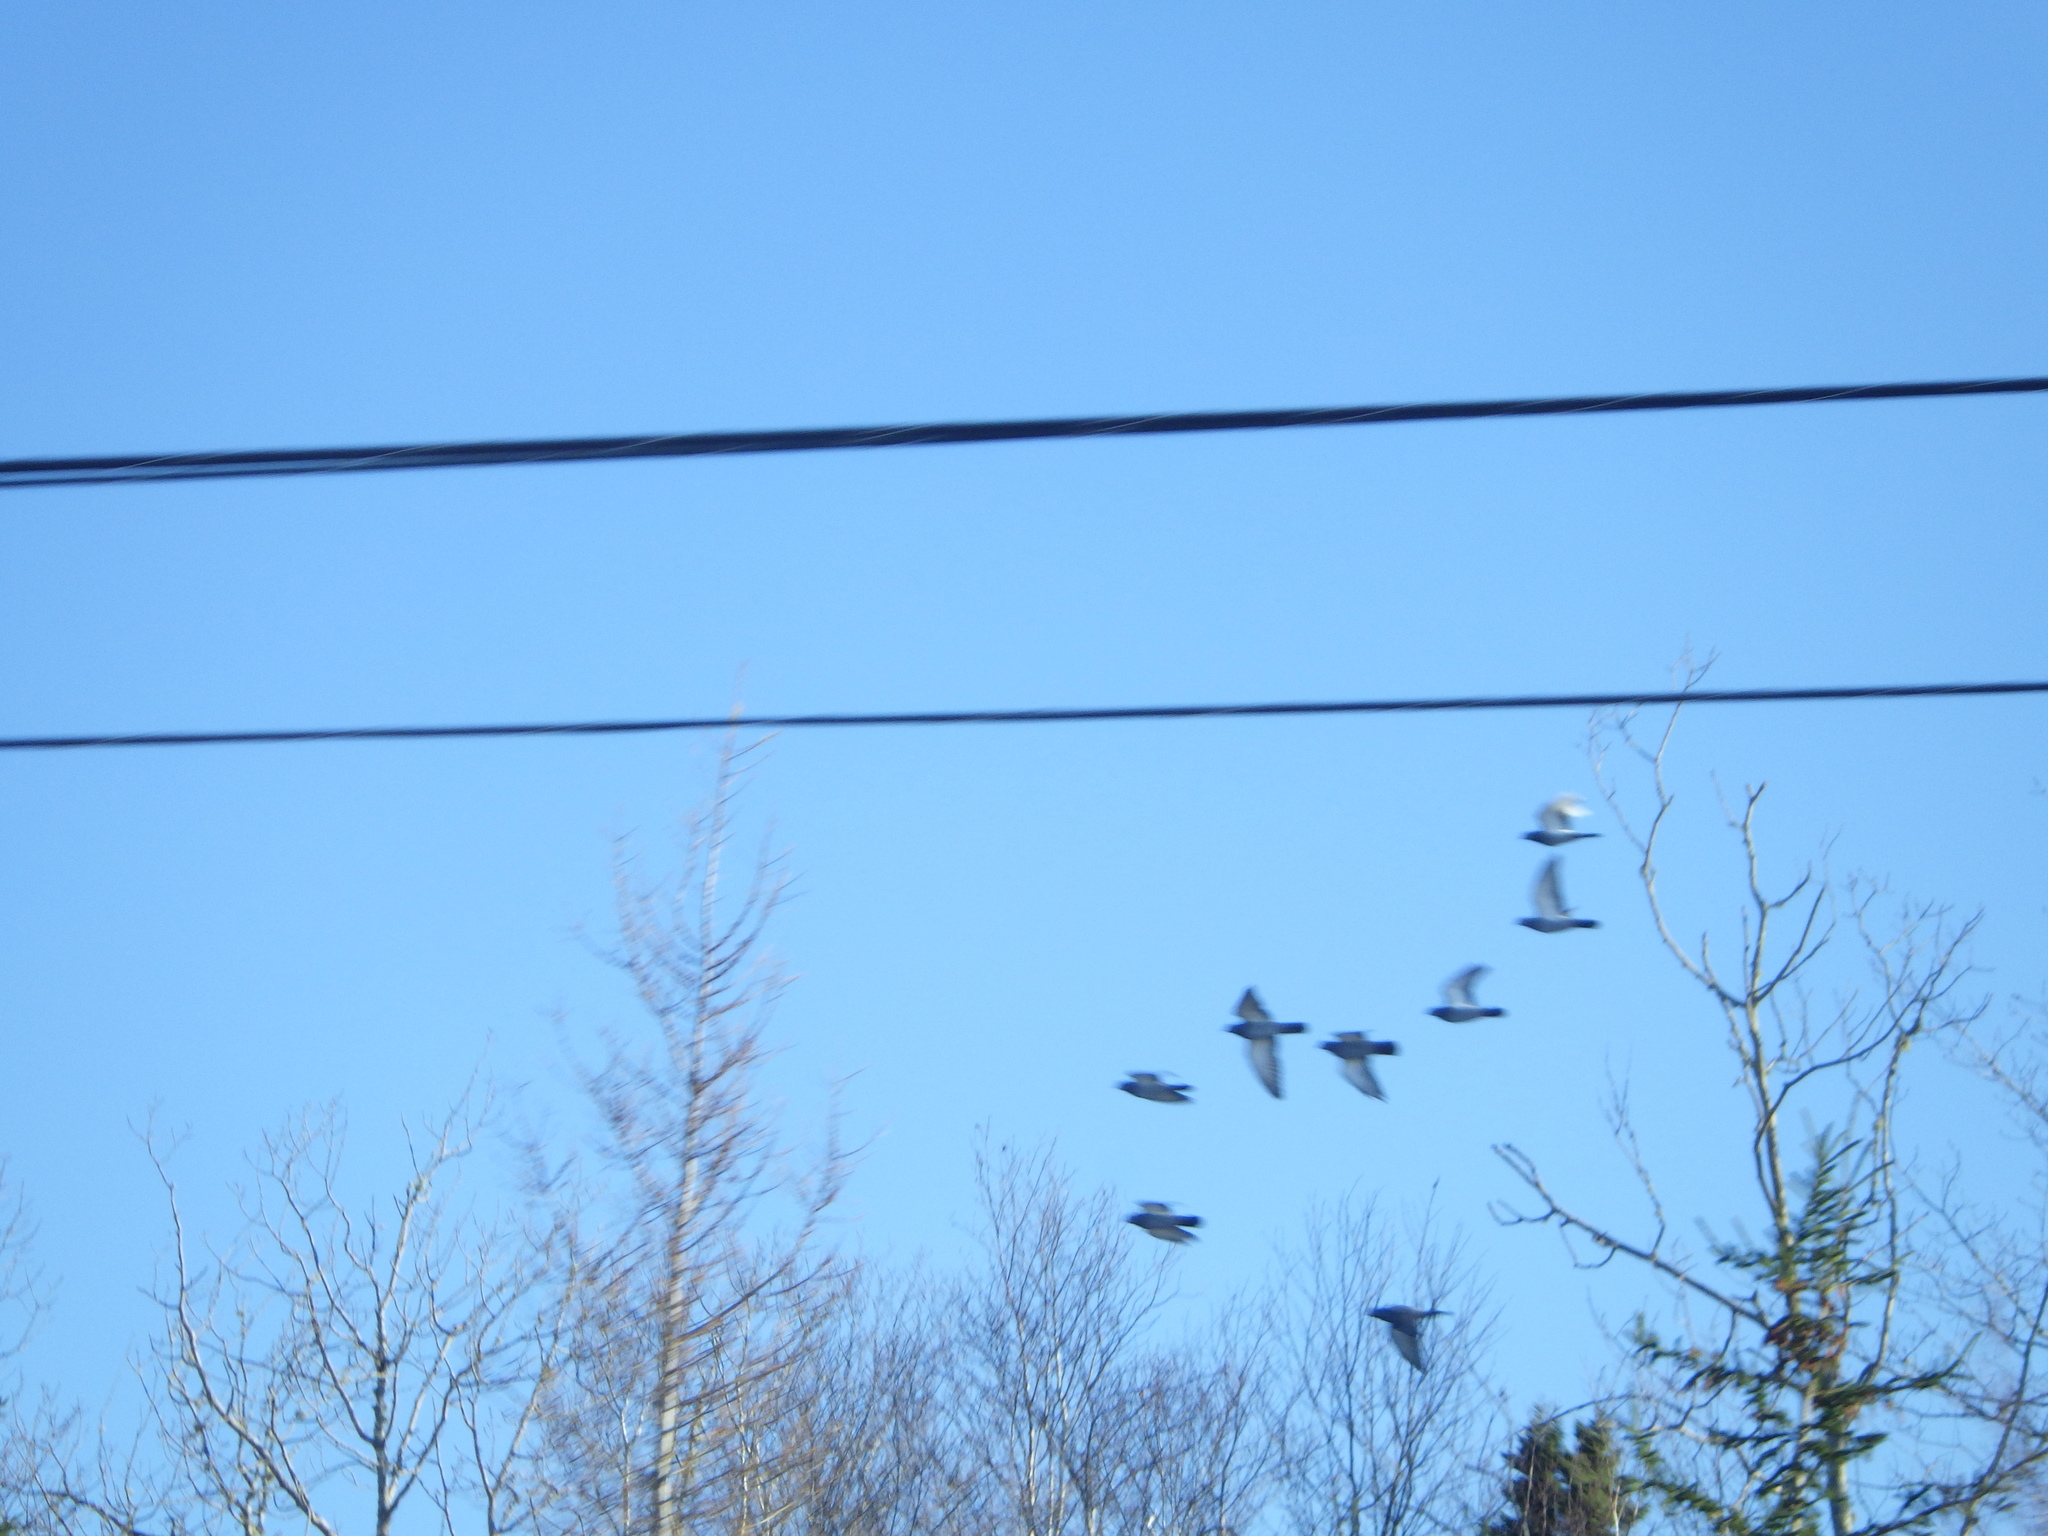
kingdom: Animalia
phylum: Chordata
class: Aves
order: Columbiformes
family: Columbidae
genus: Columba
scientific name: Columba livia
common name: Rock pigeon
